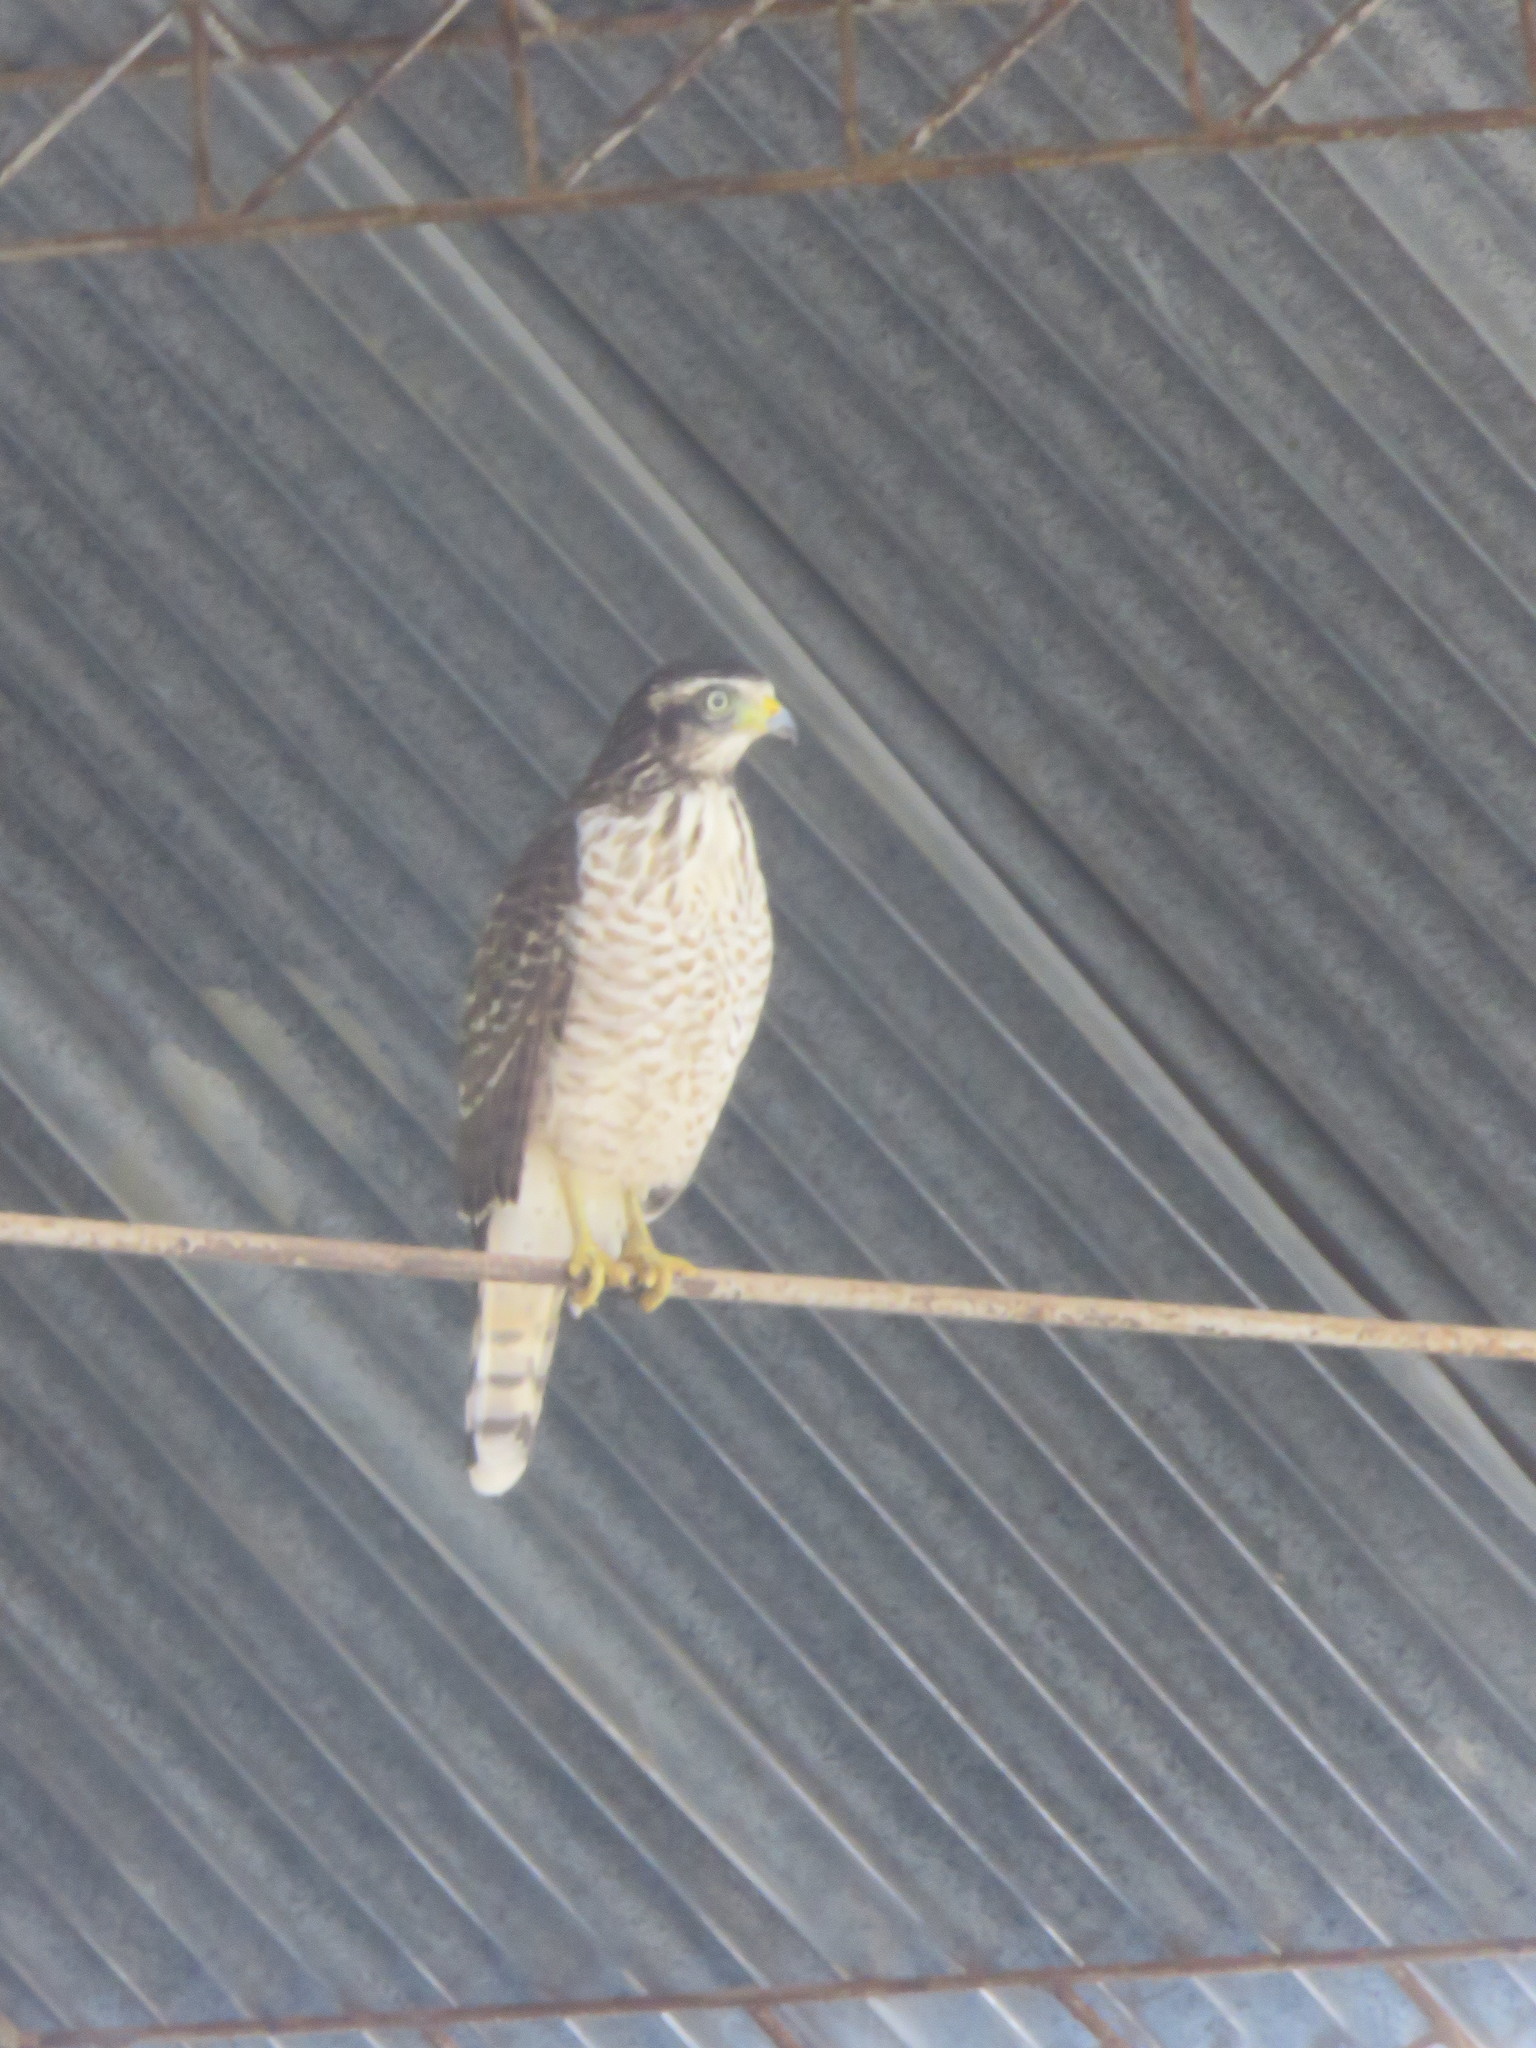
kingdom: Animalia
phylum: Chordata
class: Aves
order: Accipitriformes
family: Accipitridae
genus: Rupornis
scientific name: Rupornis magnirostris
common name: Roadside hawk
